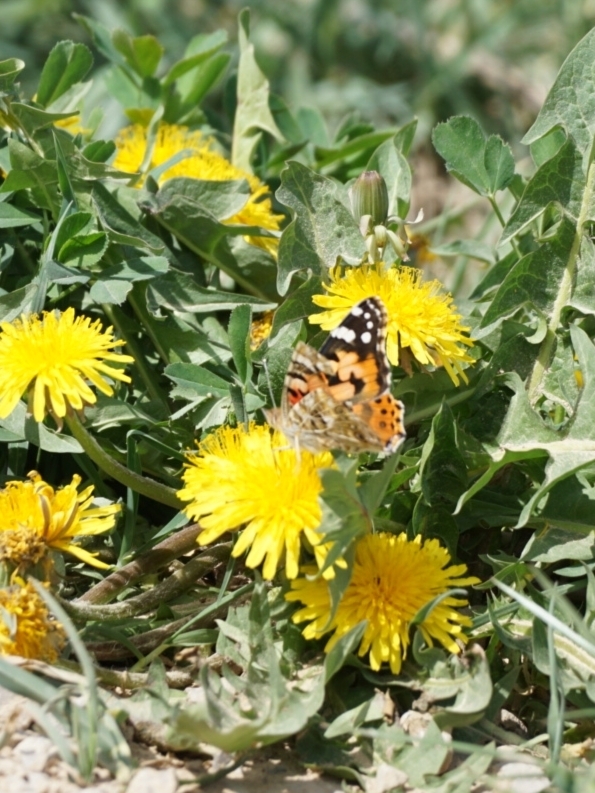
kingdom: Animalia
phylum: Arthropoda
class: Insecta
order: Lepidoptera
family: Nymphalidae
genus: Vanessa
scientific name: Vanessa cardui
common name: Painted lady
